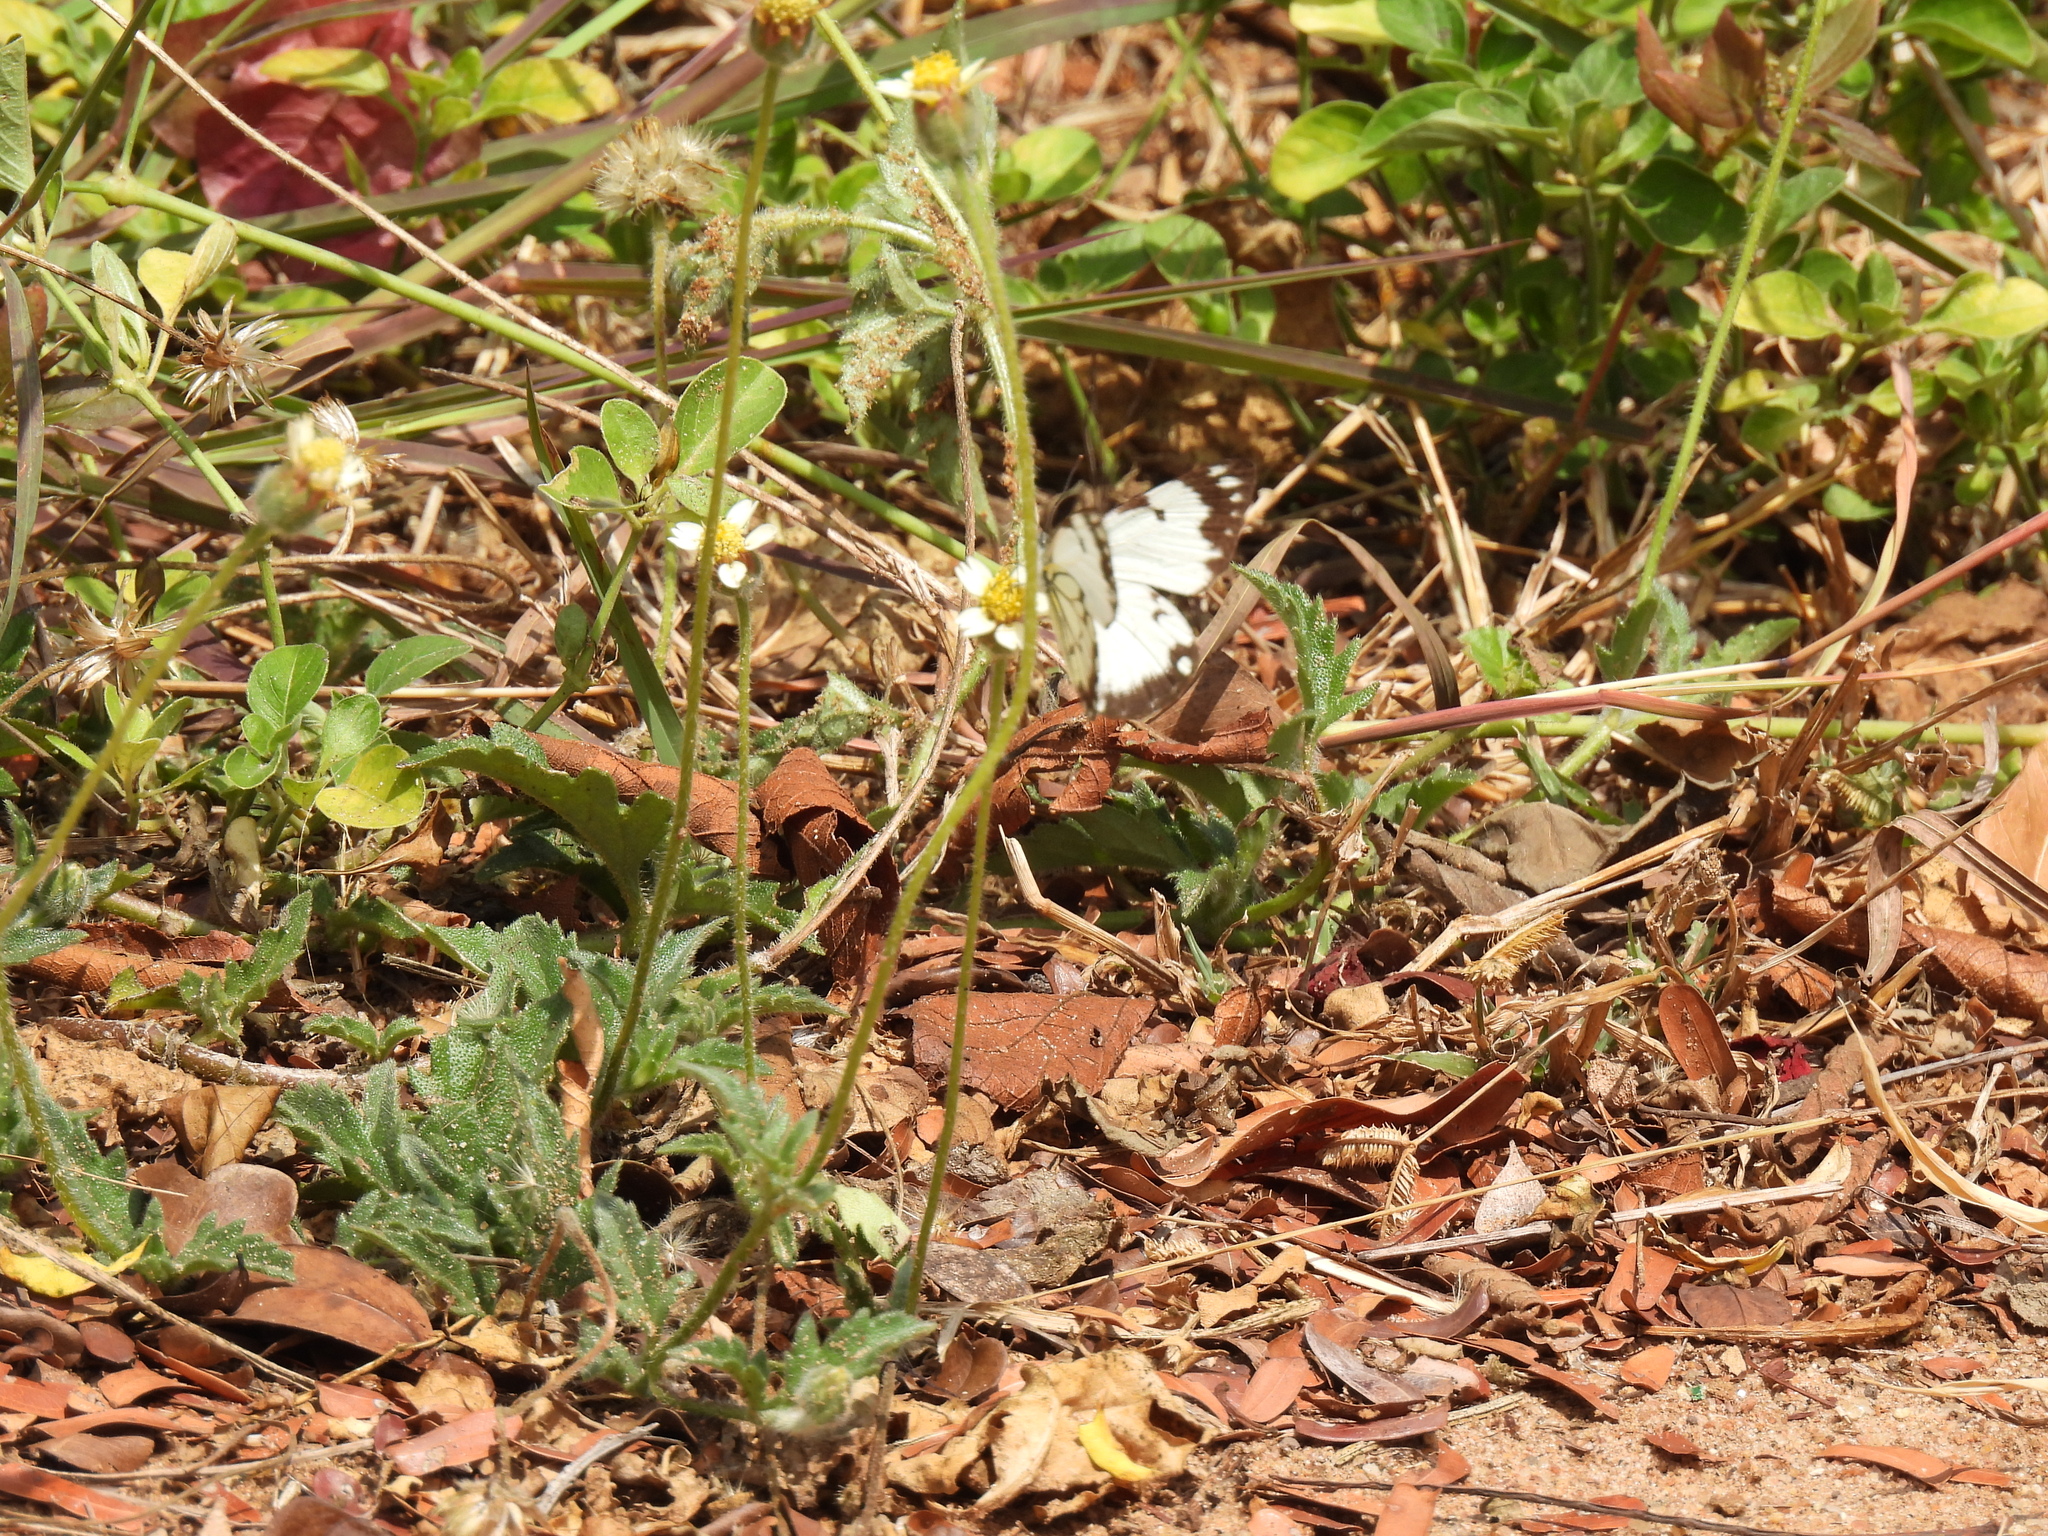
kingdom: Animalia
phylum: Arthropoda
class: Insecta
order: Lepidoptera
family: Pieridae
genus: Belenois
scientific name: Belenois creona
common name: African caper white
